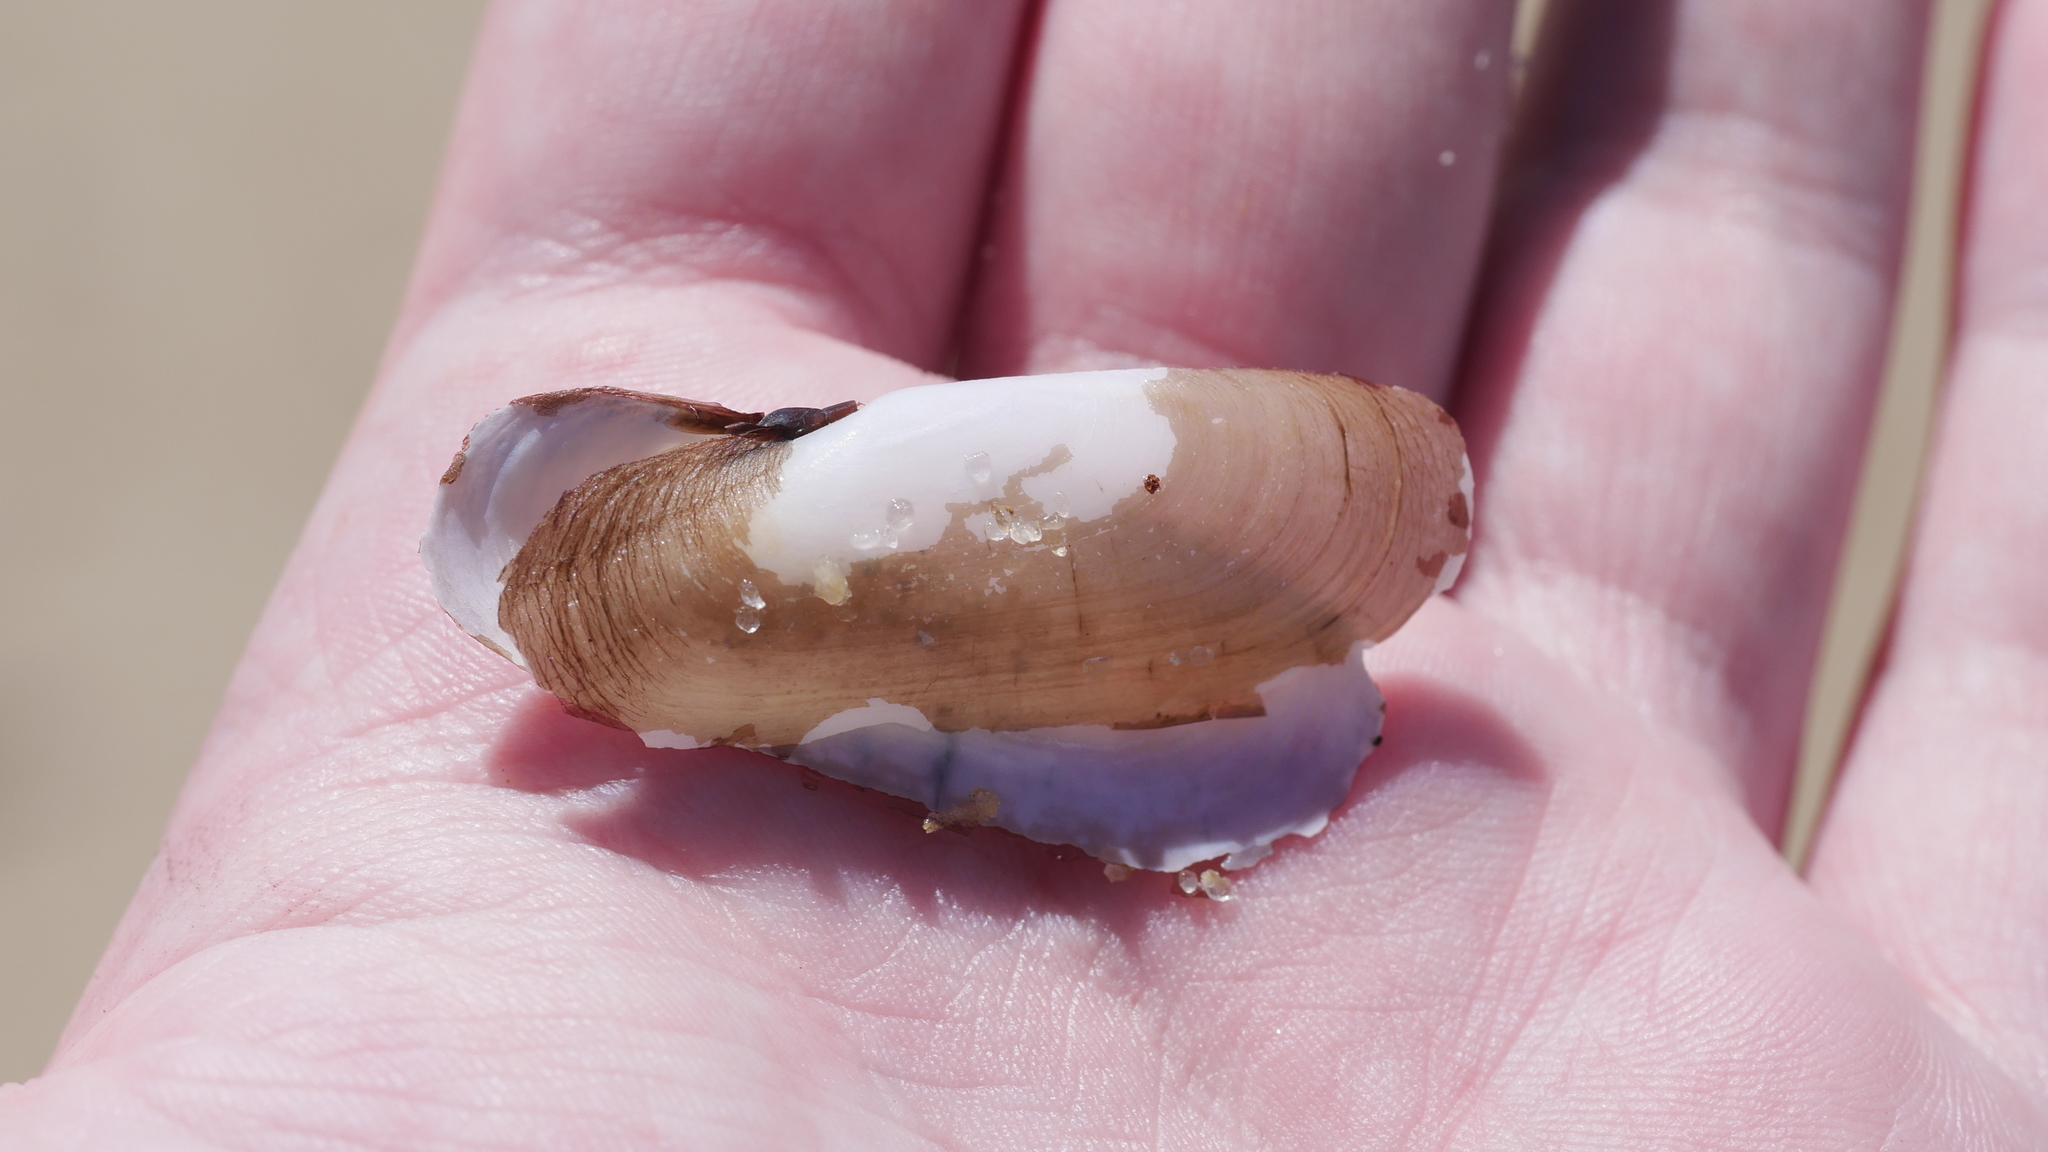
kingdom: Animalia
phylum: Mollusca
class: Bivalvia
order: Cardiida
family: Solecurtidae
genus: Tagelus
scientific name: Tagelus plebeius
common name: Stout tagelus
